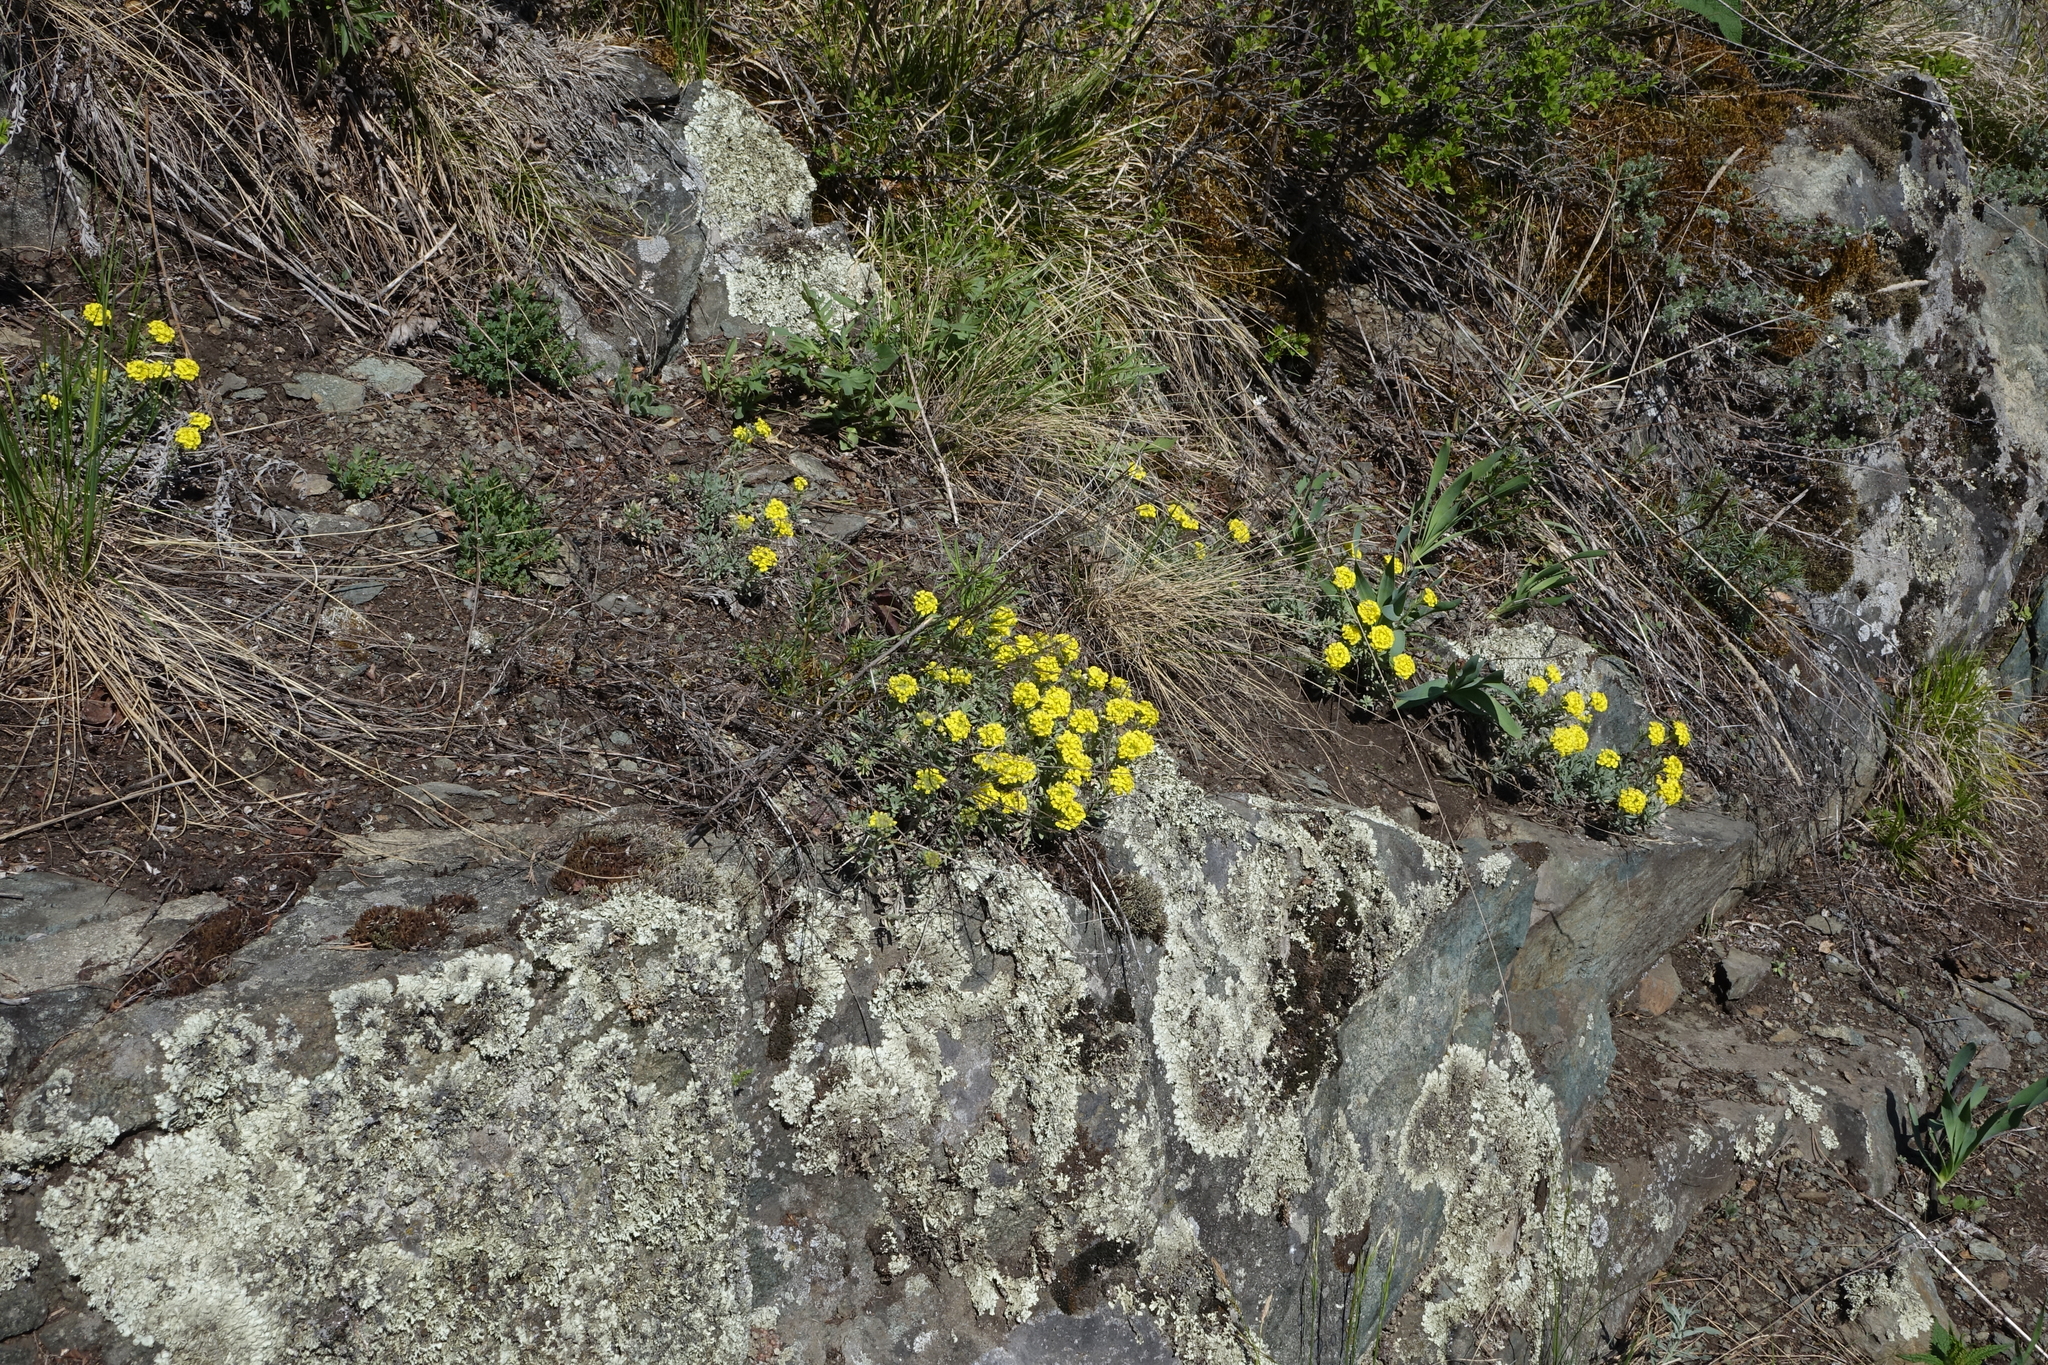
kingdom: Plantae
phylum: Tracheophyta
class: Magnoliopsida
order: Brassicales
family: Brassicaceae
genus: Alyssum
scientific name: Alyssum lenense
